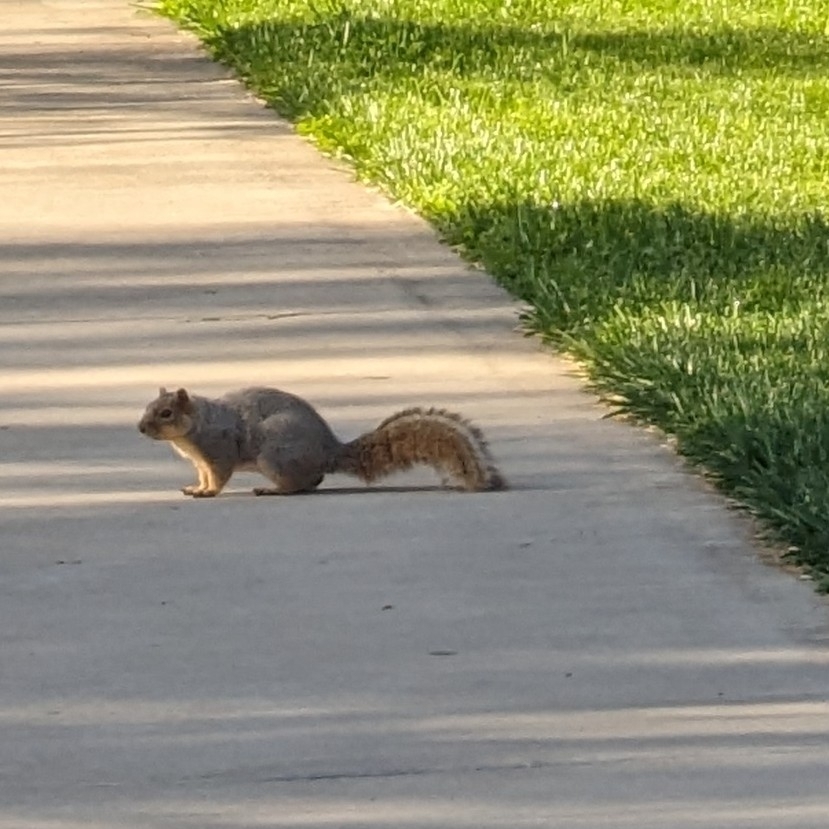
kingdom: Animalia
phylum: Chordata
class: Mammalia
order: Rodentia
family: Sciuridae
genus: Sciurus
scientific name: Sciurus niger
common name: Fox squirrel
